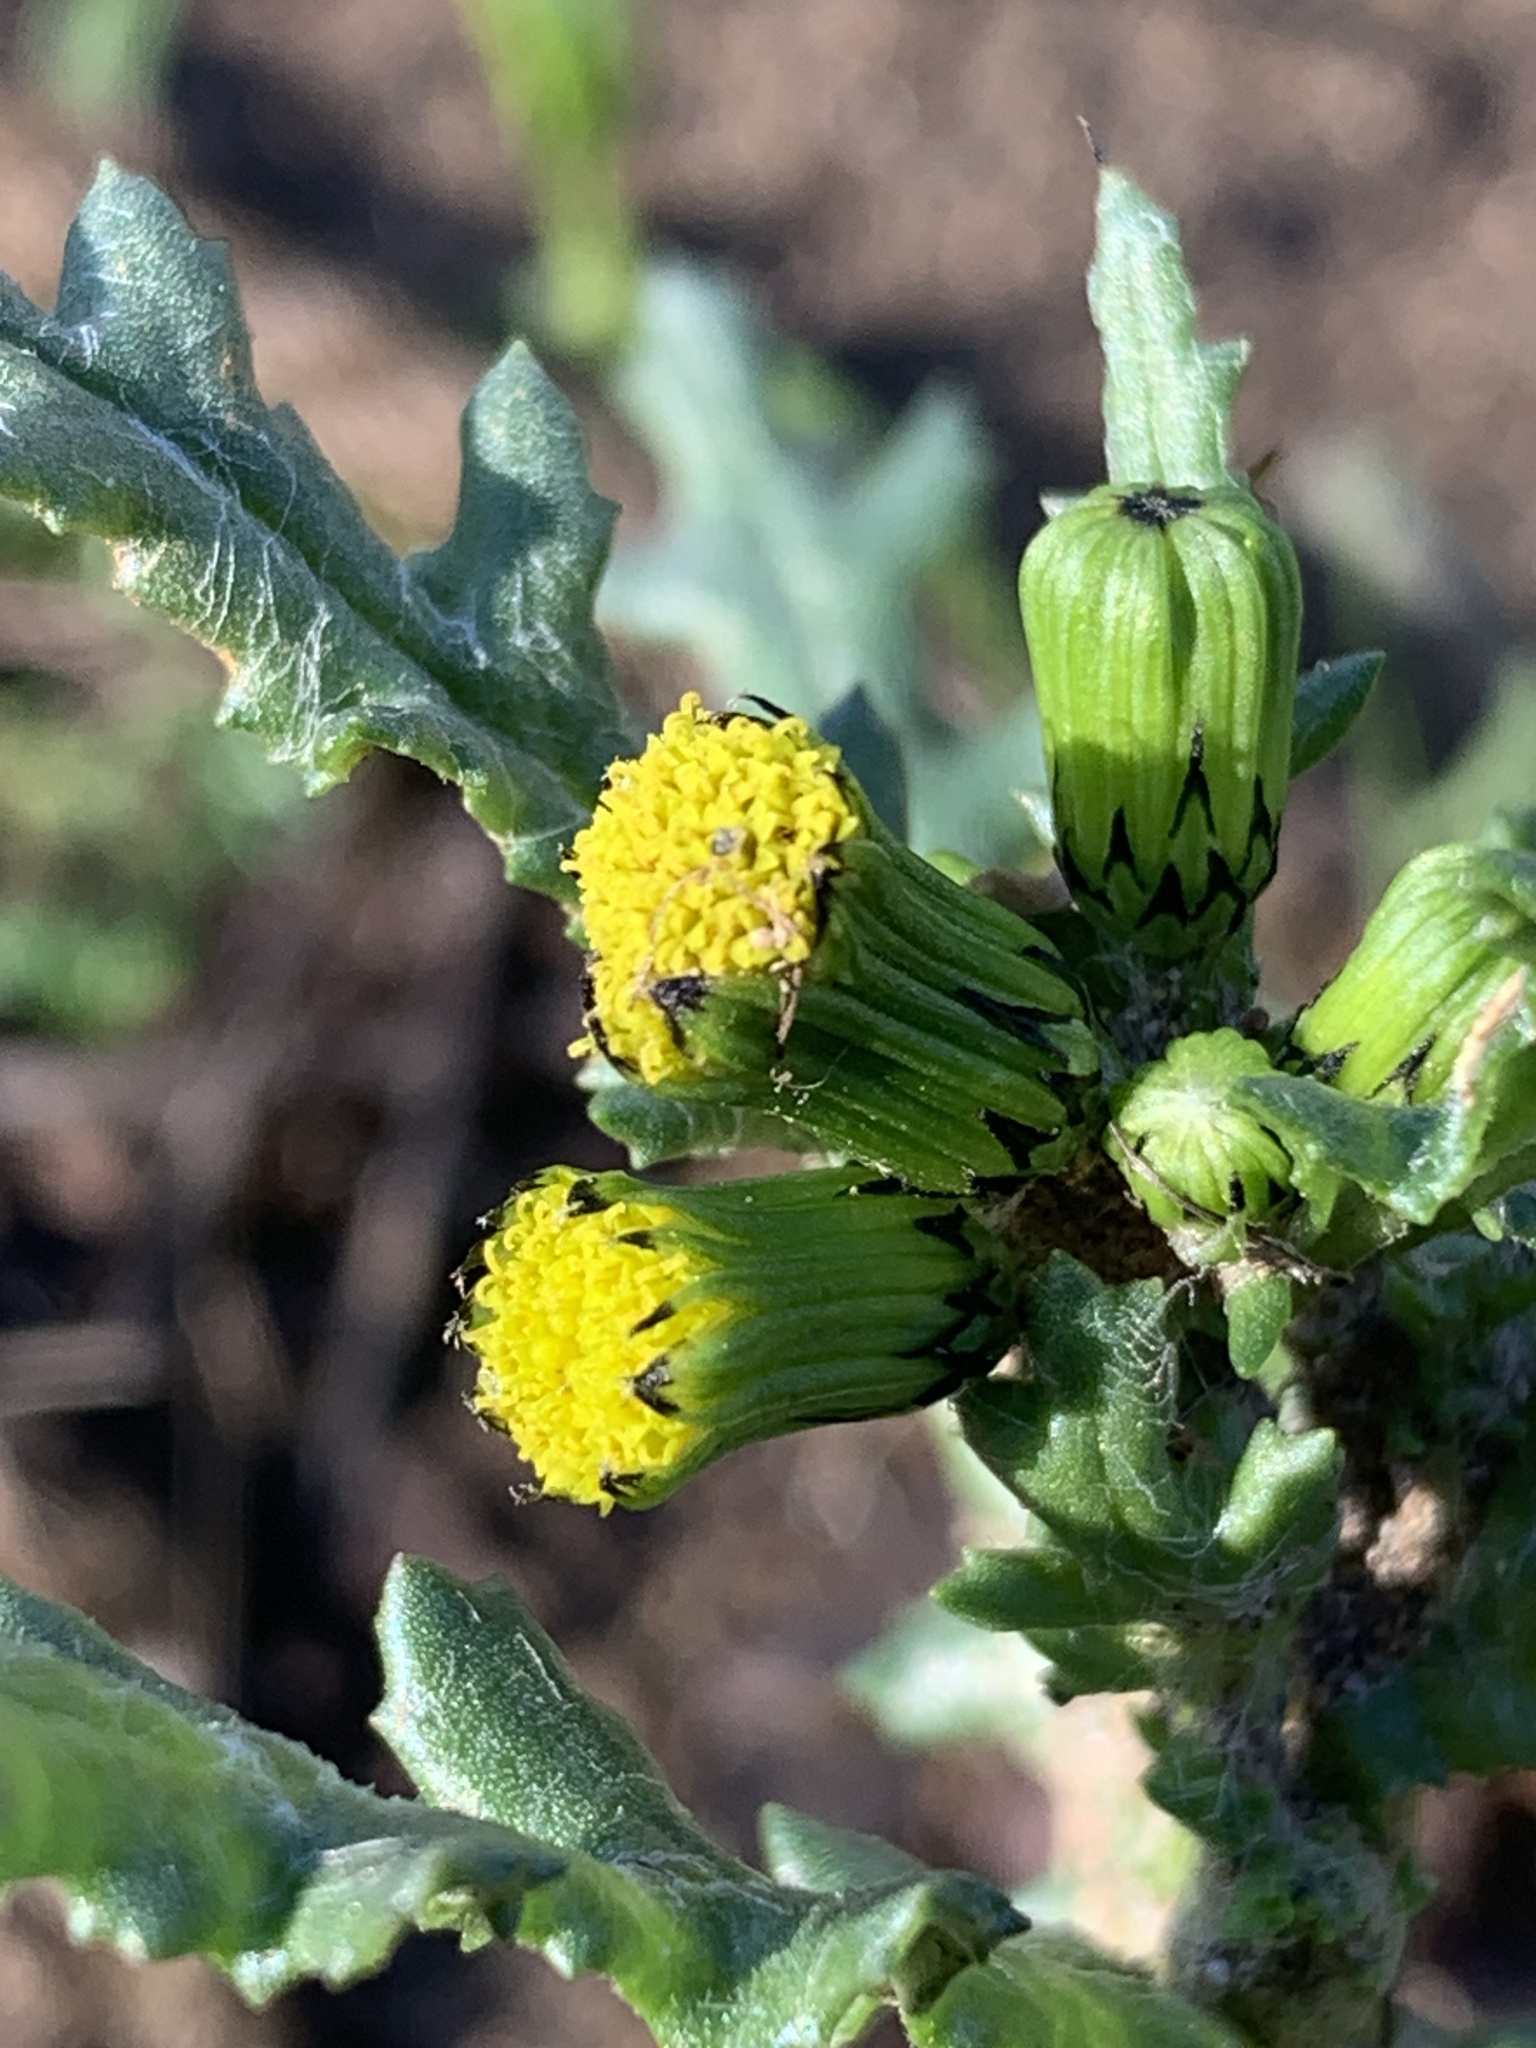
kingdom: Plantae
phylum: Tracheophyta
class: Magnoliopsida
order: Asterales
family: Asteraceae
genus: Senecio
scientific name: Senecio vulgaris
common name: Old-man-in-the-spring
